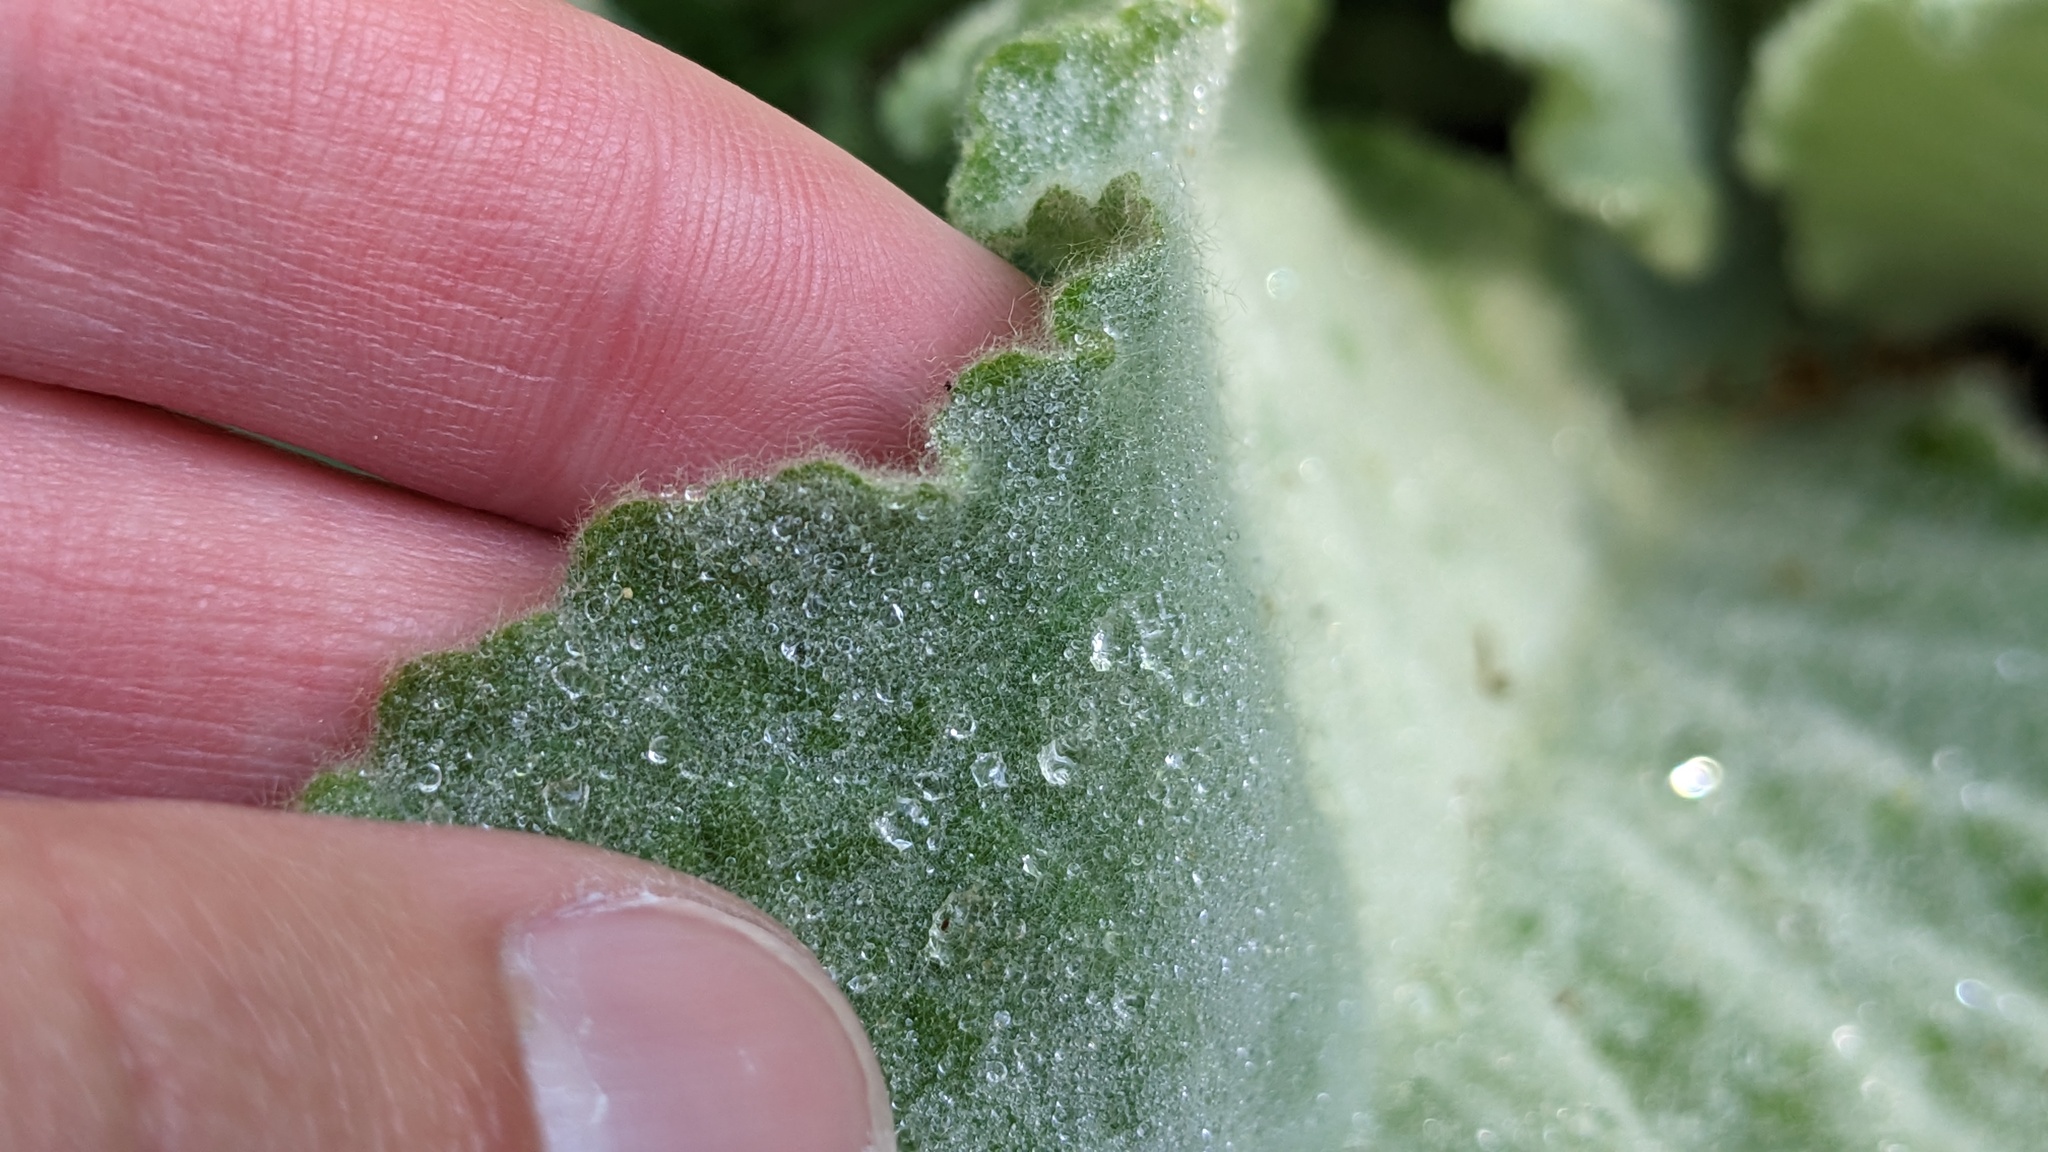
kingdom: Plantae
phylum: Tracheophyta
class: Magnoliopsida
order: Lamiales
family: Scrophulariaceae
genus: Verbascum
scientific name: Verbascum thapsus
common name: Common mullein
